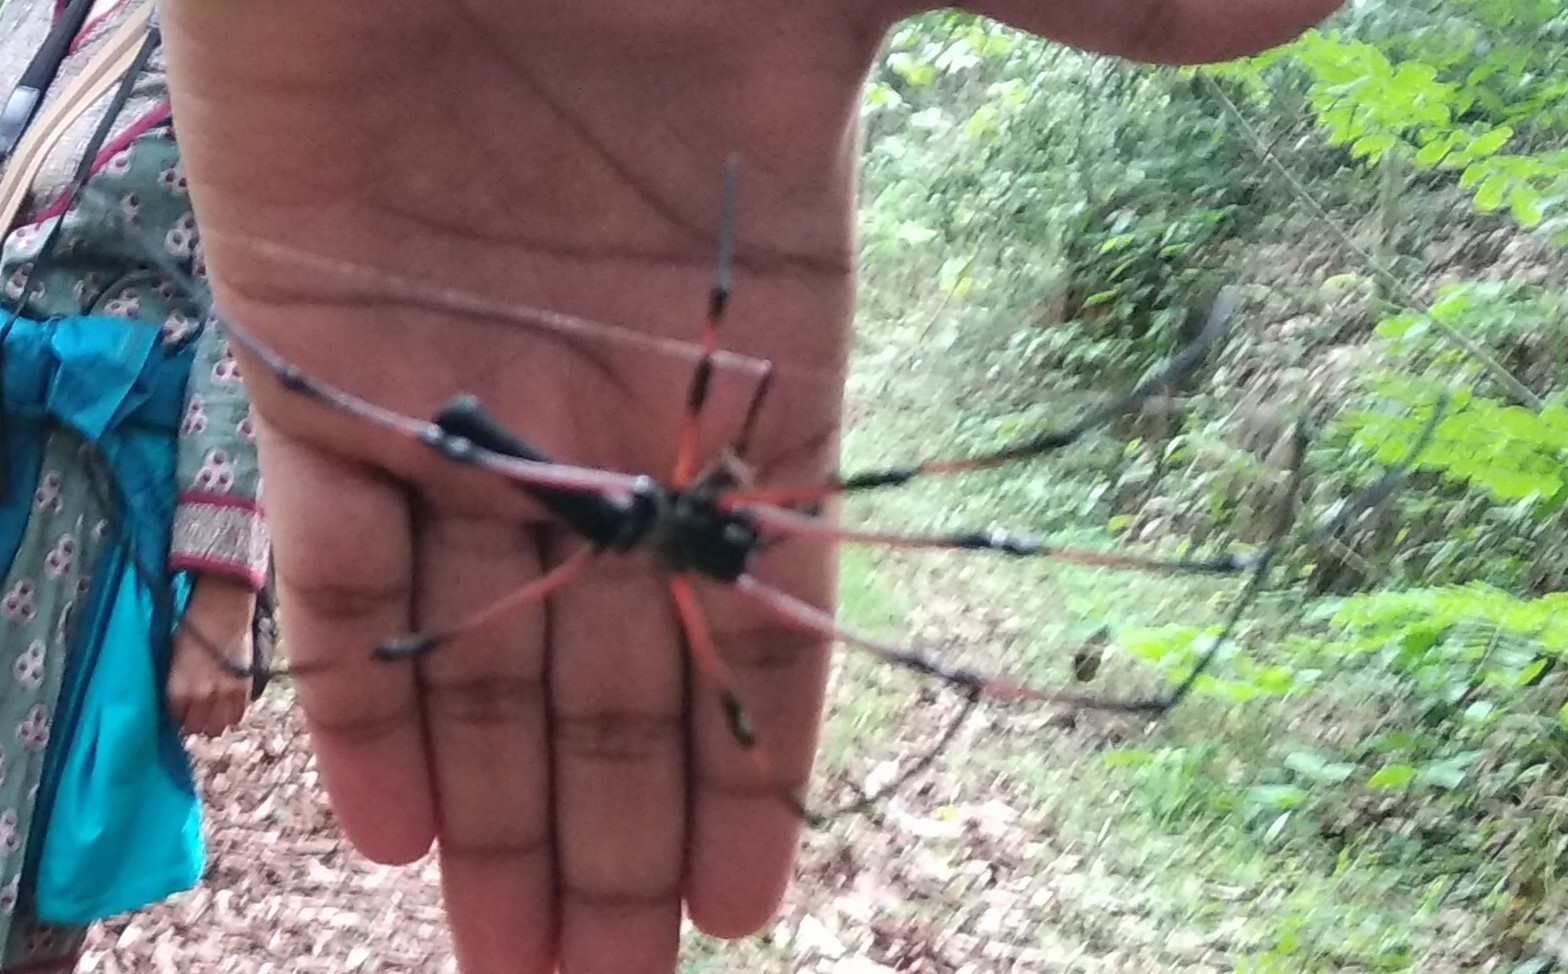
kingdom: Animalia
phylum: Arthropoda
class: Arachnida
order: Araneae
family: Araneidae
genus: Nephila
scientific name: Nephila kuhli
